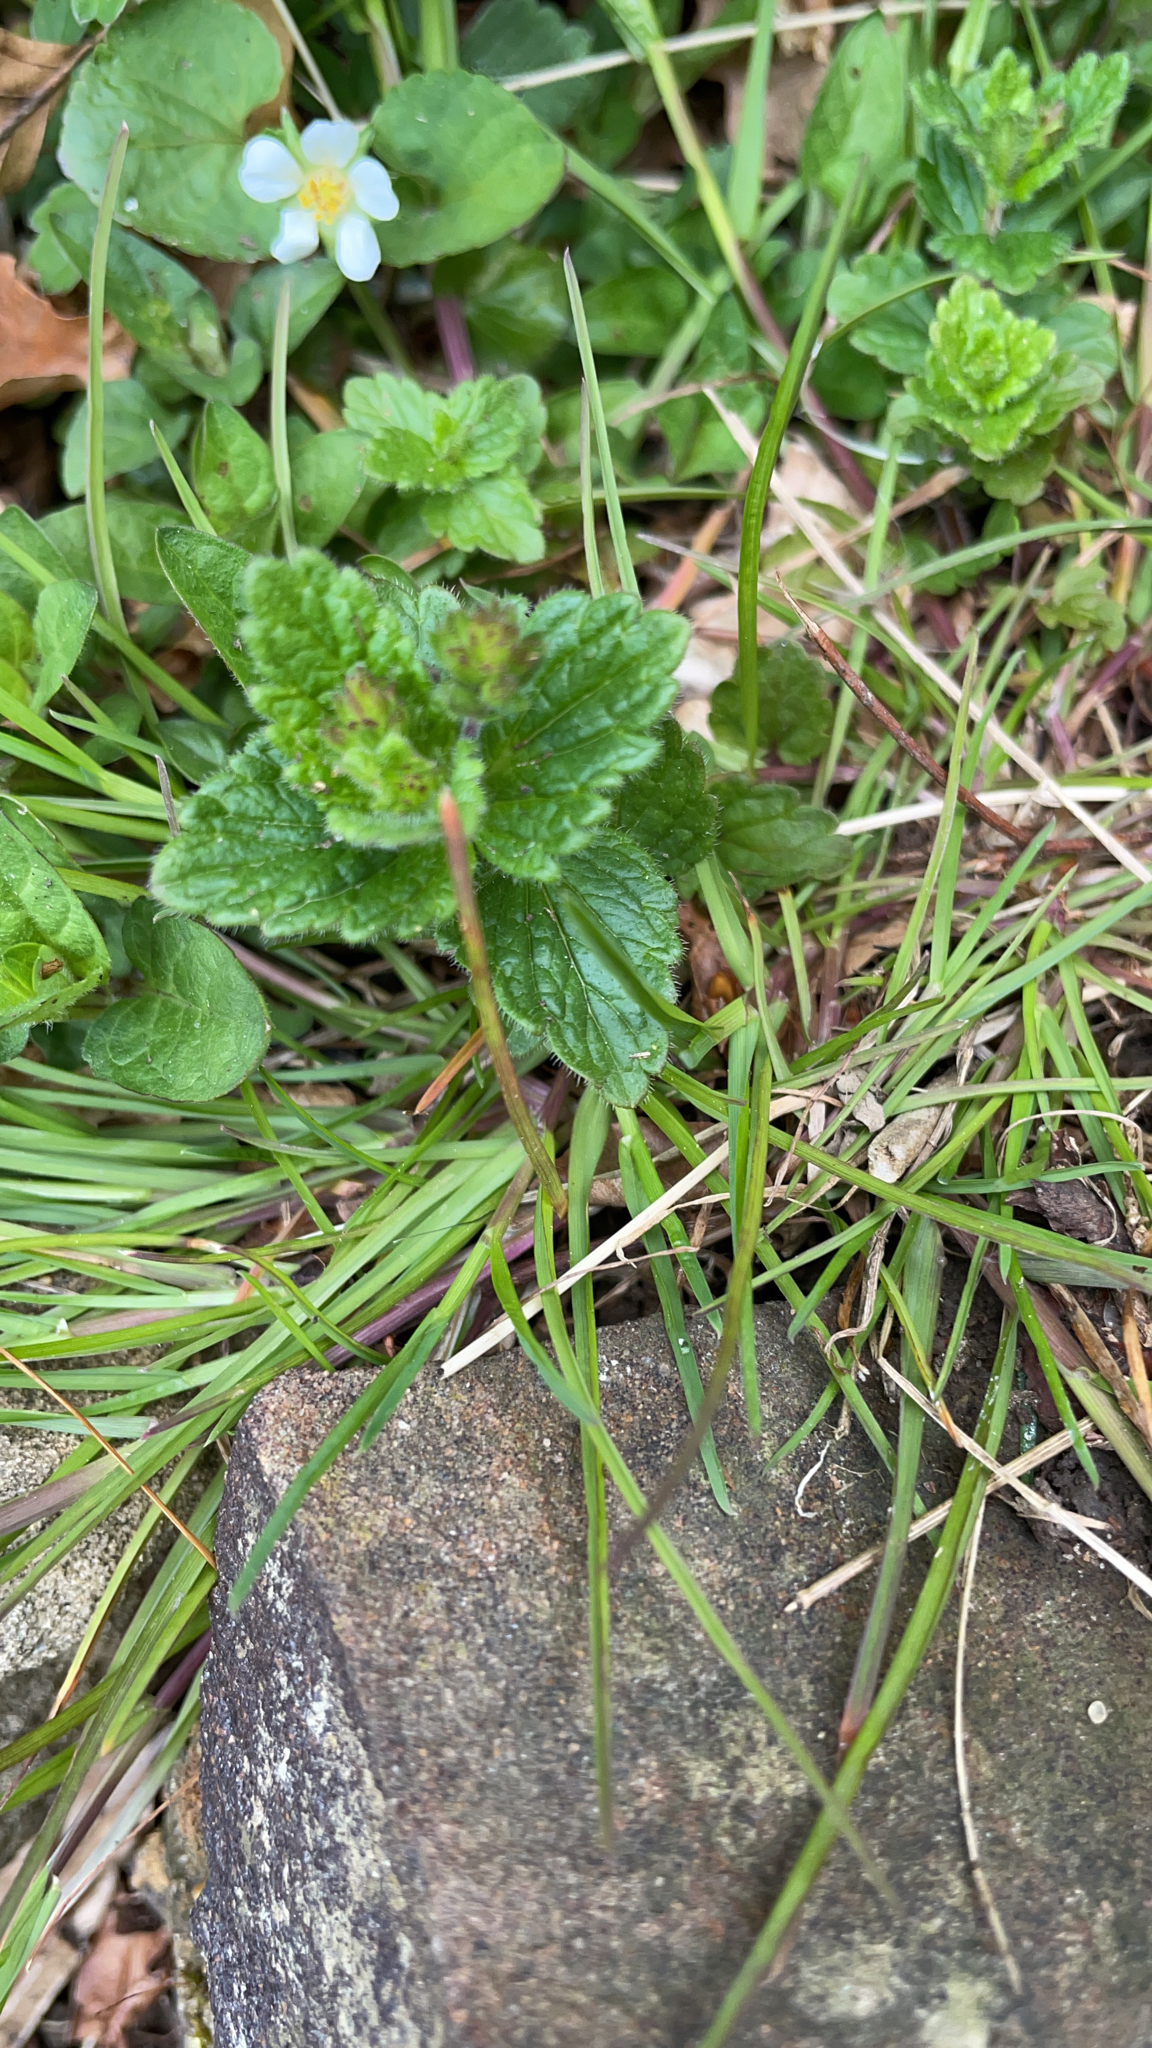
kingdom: Plantae
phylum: Tracheophyta
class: Magnoliopsida
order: Lamiales
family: Plantaginaceae
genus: Veronica
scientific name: Veronica chamaedrys
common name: Germander speedwell
